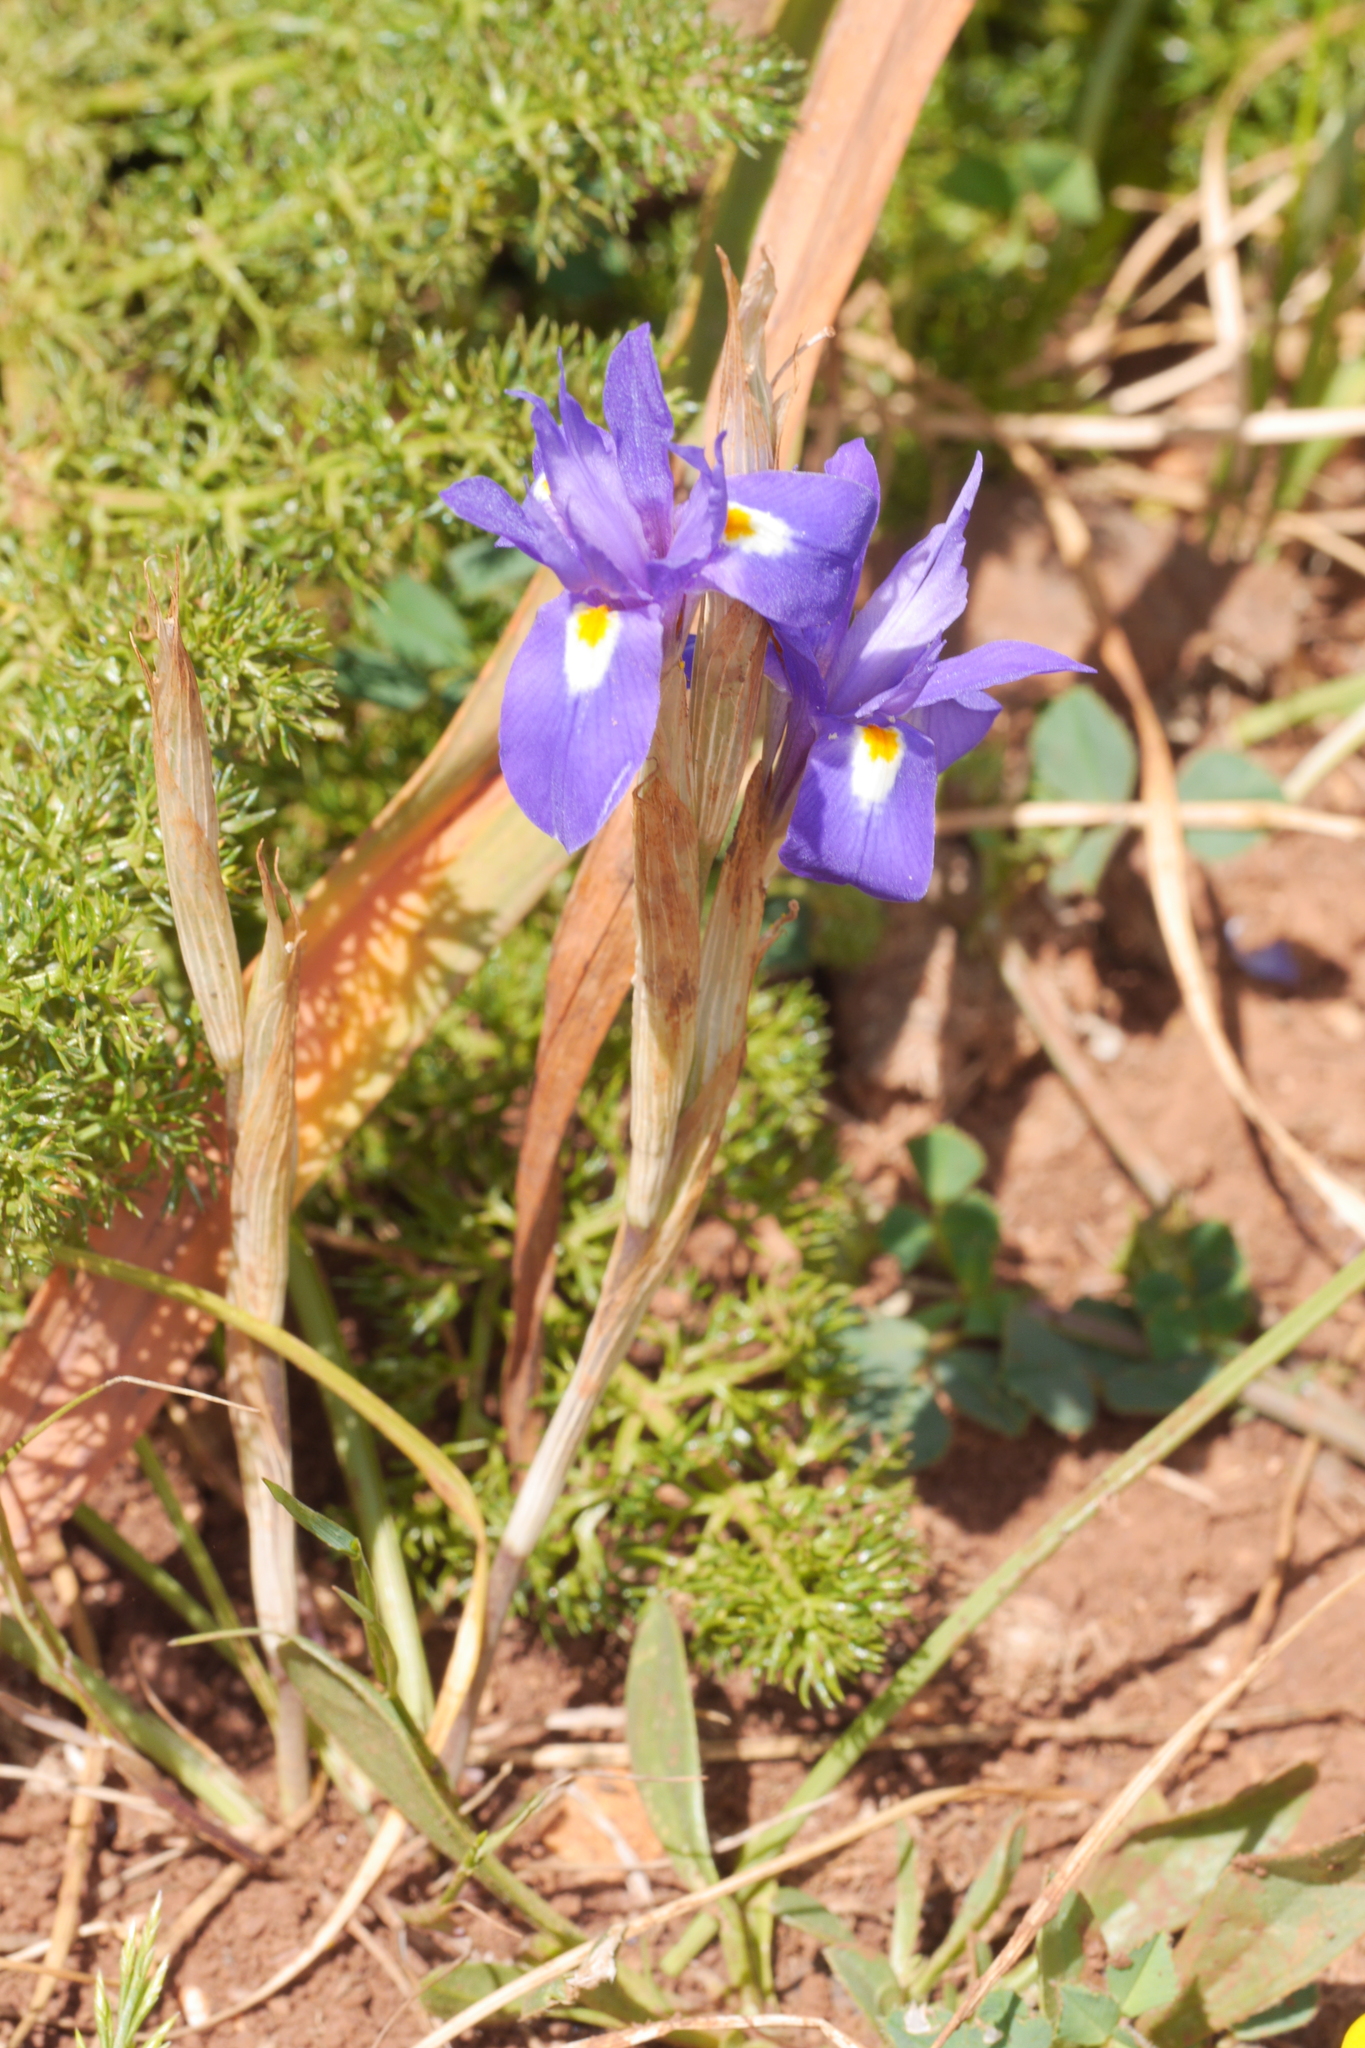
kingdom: Plantae
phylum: Tracheophyta
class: Liliopsida
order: Asparagales
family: Iridaceae
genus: Moraea
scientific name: Moraea sisyrinchium
